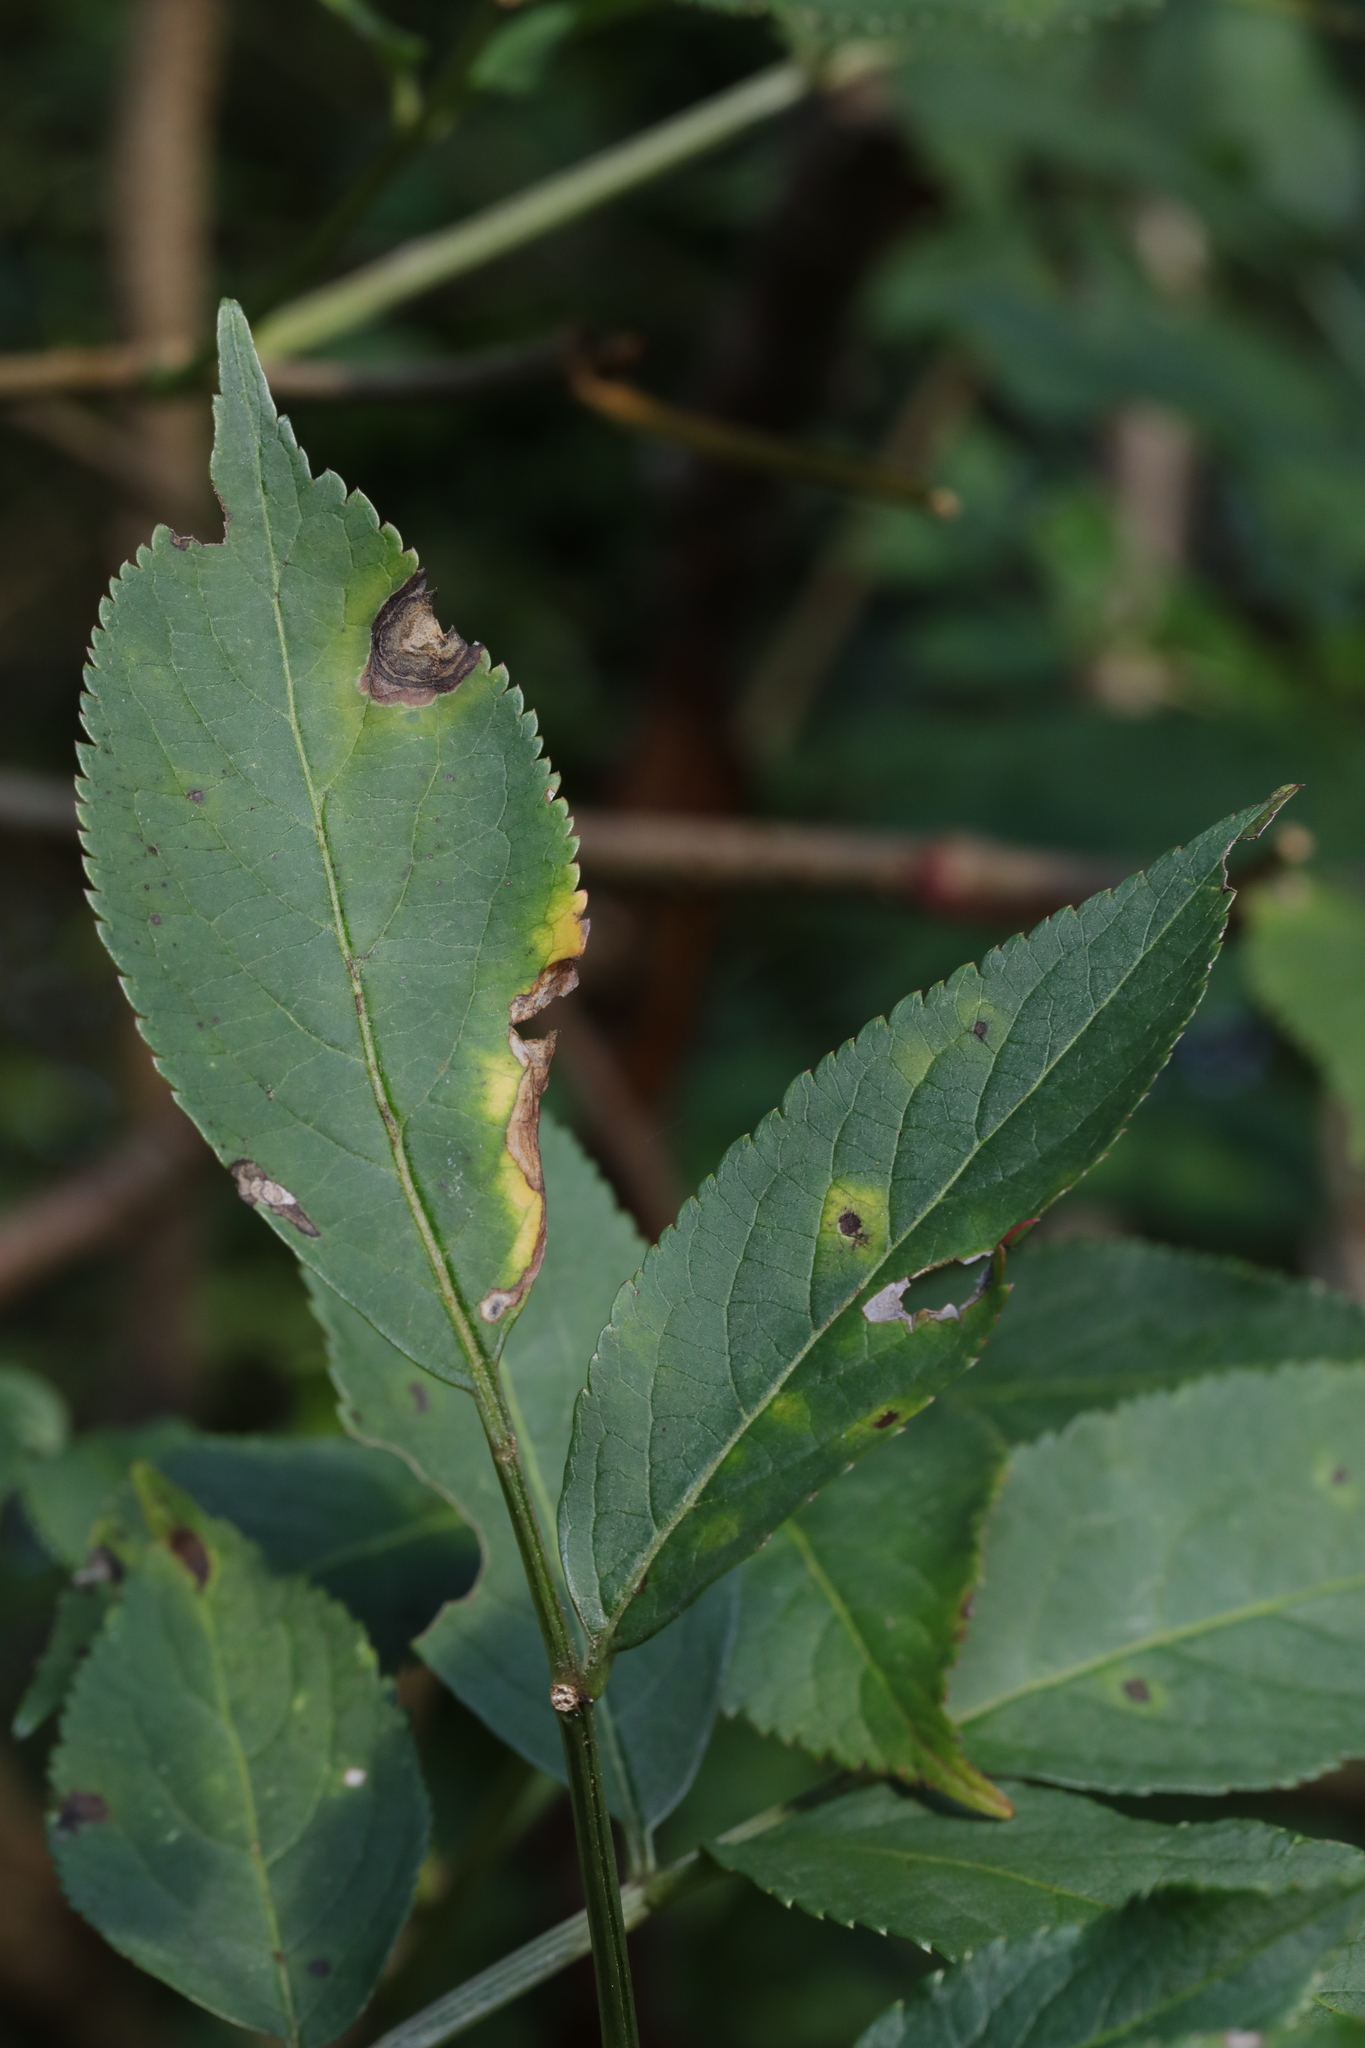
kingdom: Plantae
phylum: Tracheophyta
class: Magnoliopsida
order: Dipsacales
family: Viburnaceae
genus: Sambucus
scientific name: Sambucus nigra
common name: Elder
